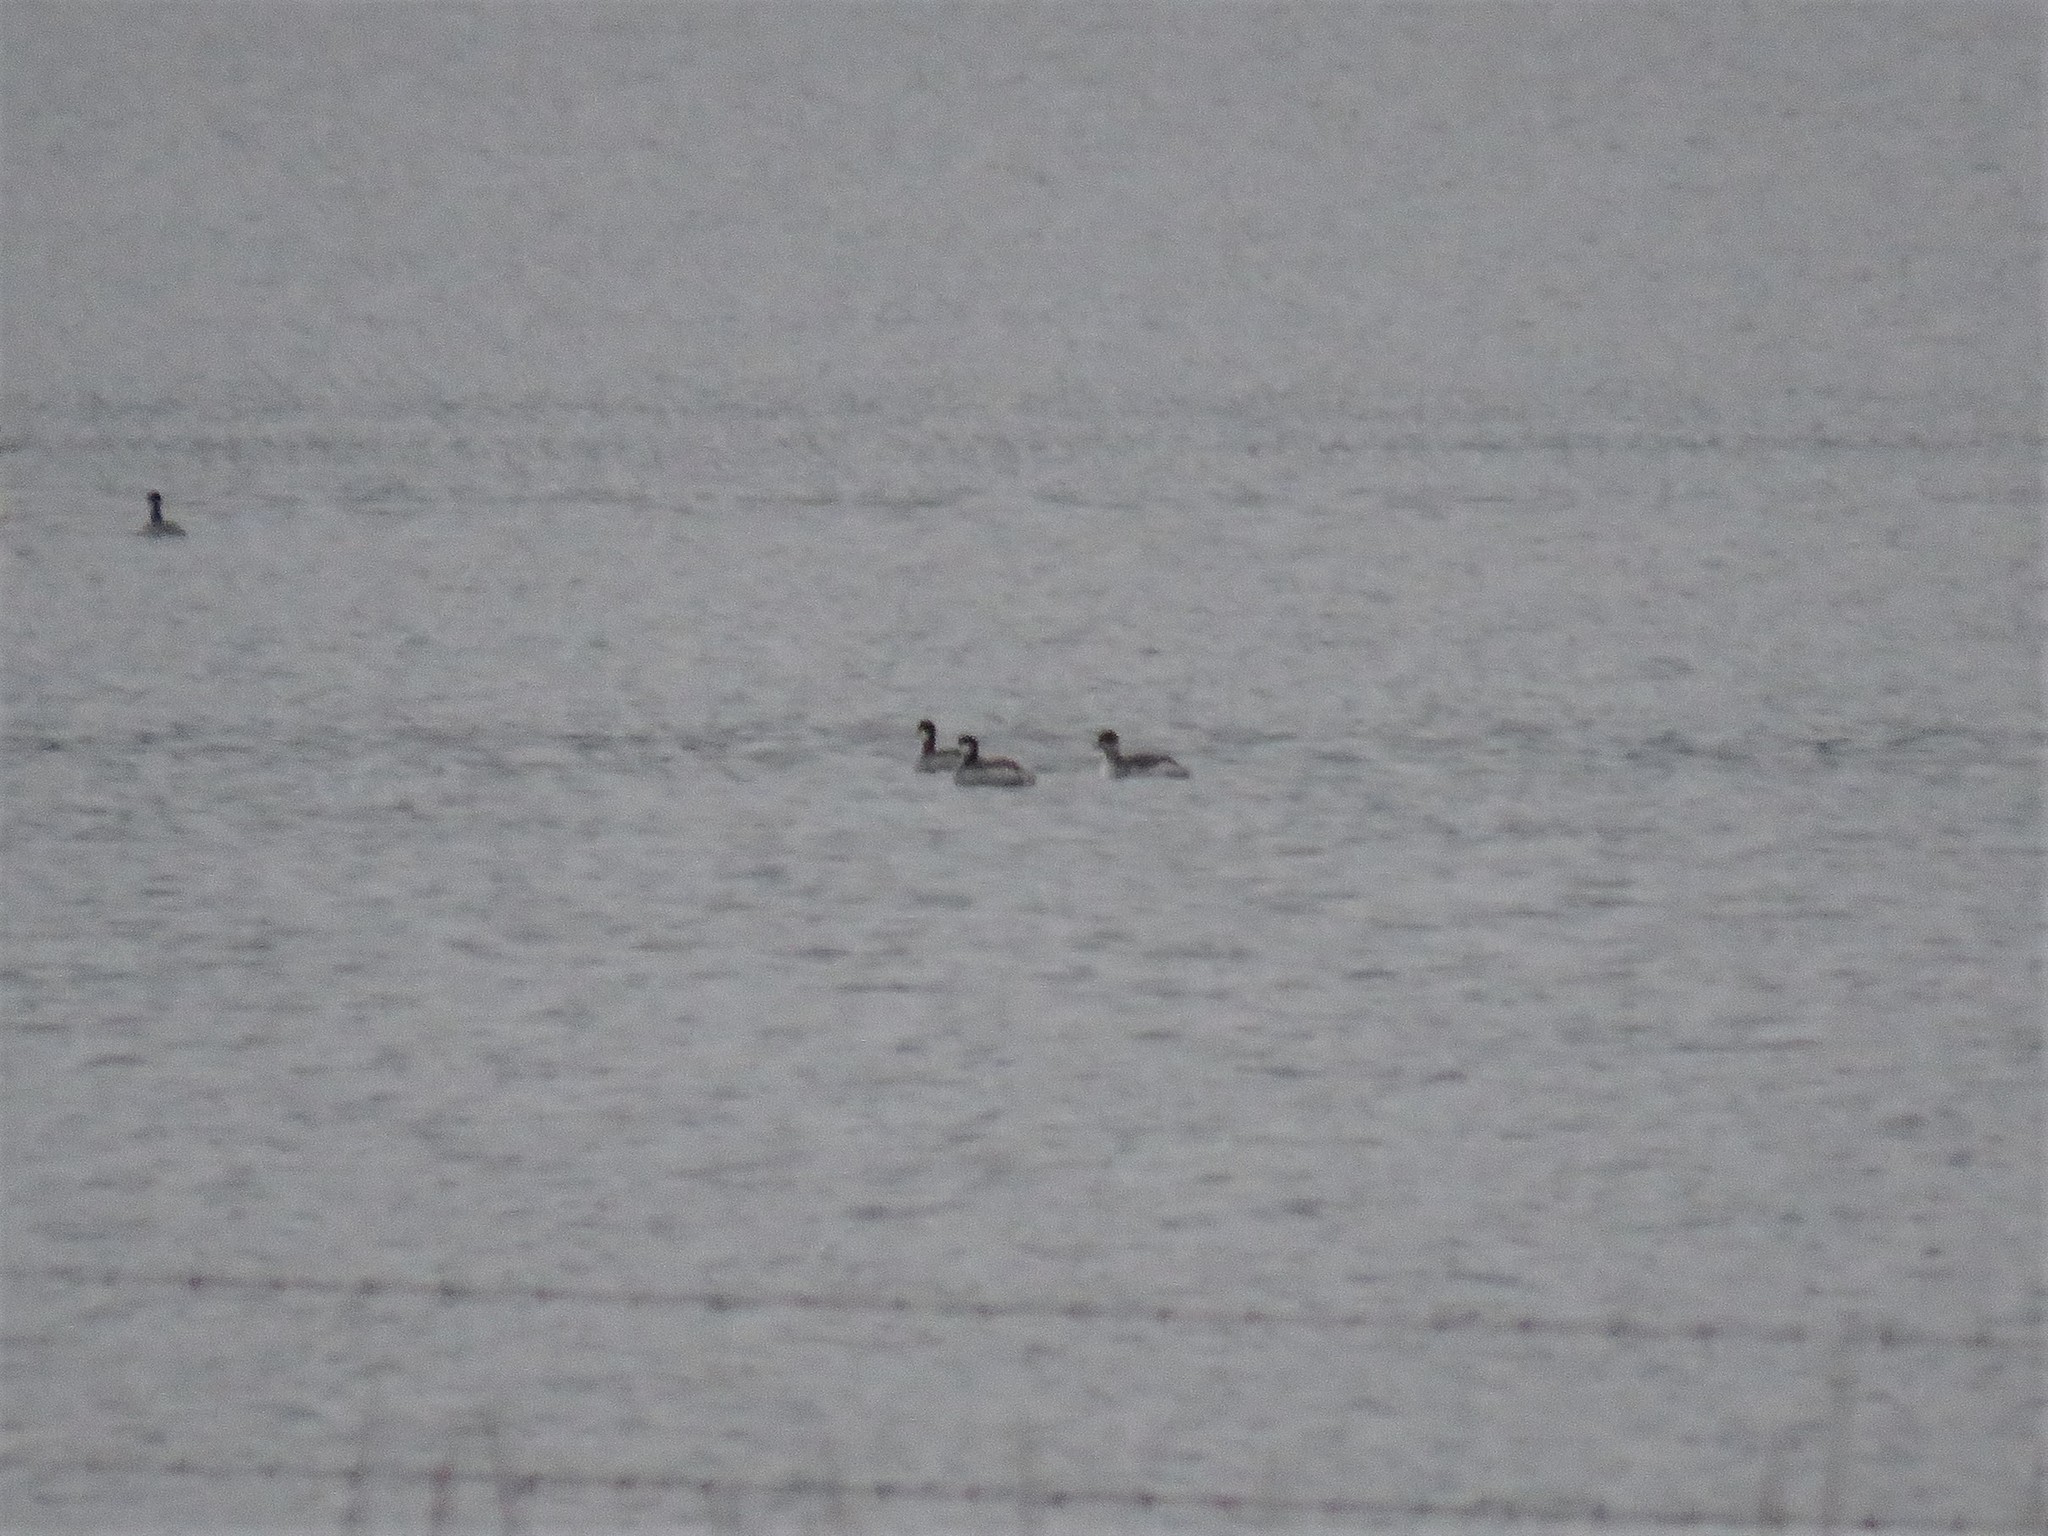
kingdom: Animalia
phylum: Chordata
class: Aves
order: Podicipediformes
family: Podicipedidae
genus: Podiceps
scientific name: Podiceps nigricollis
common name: Black-necked grebe
